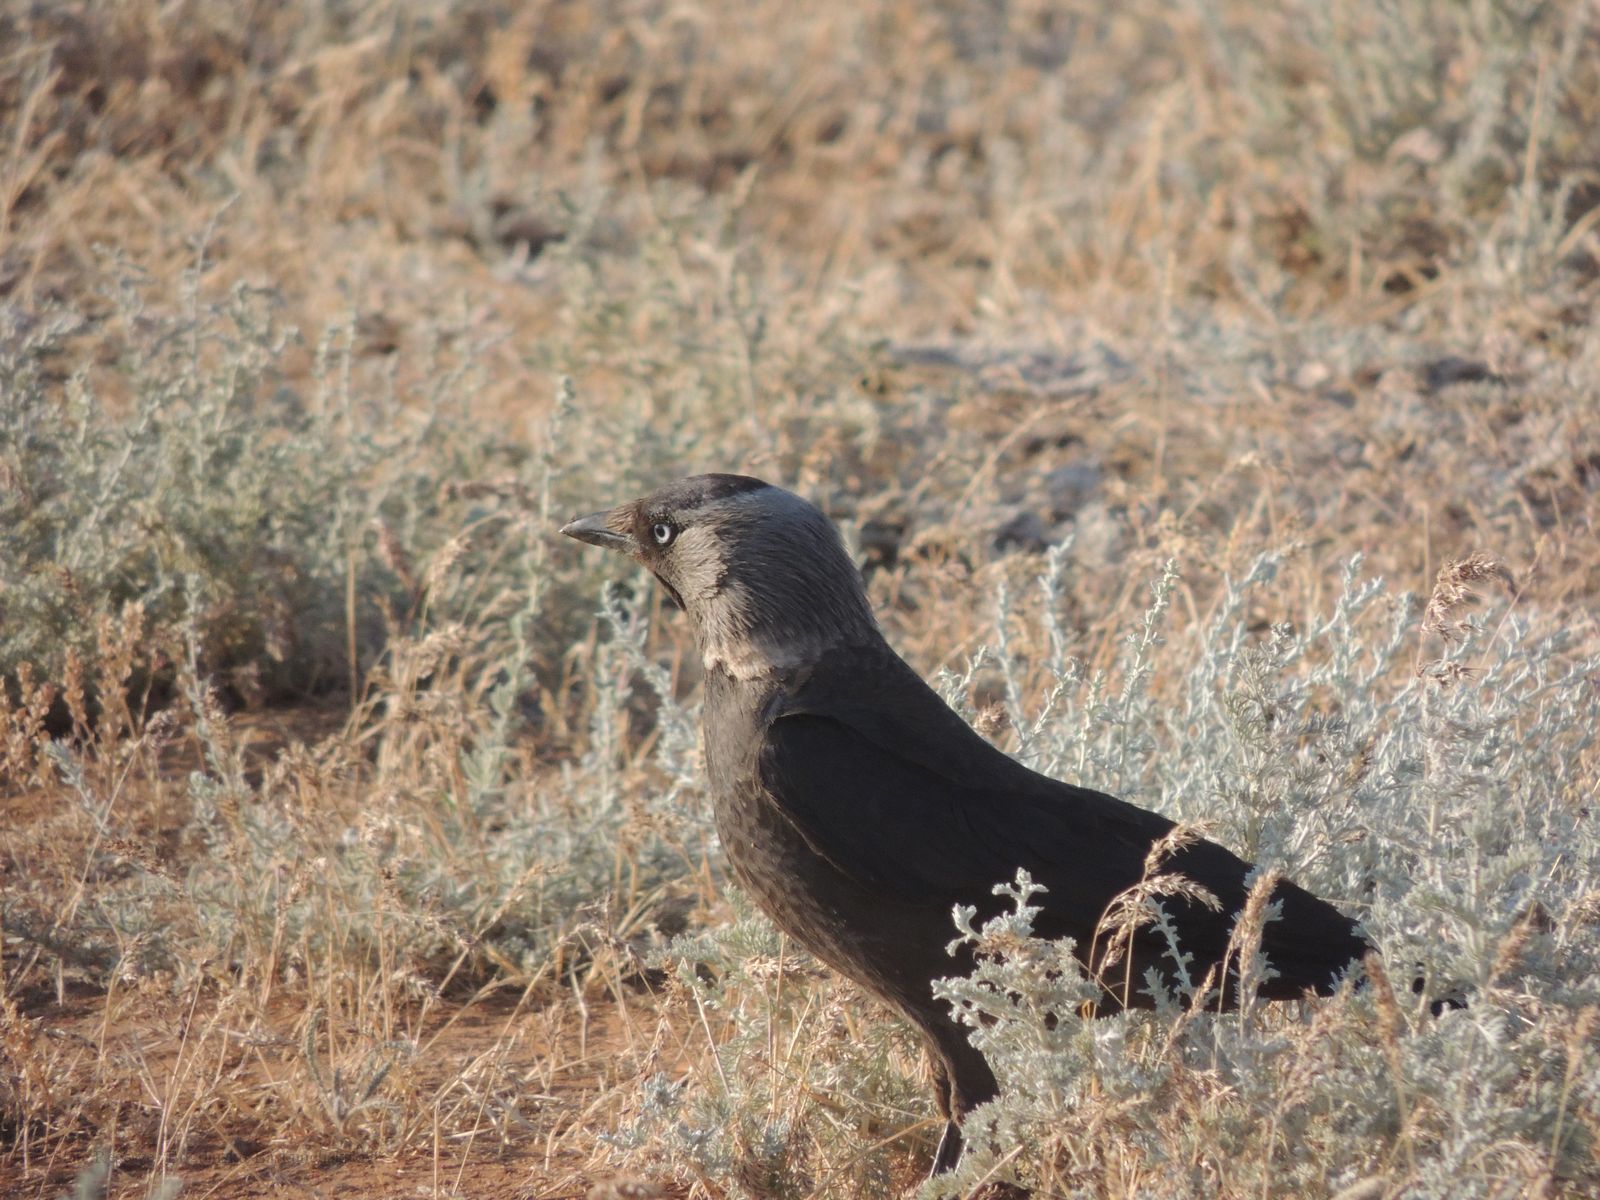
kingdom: Animalia
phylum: Chordata
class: Aves
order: Passeriformes
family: Corvidae
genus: Coloeus
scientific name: Coloeus monedula
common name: Western jackdaw
